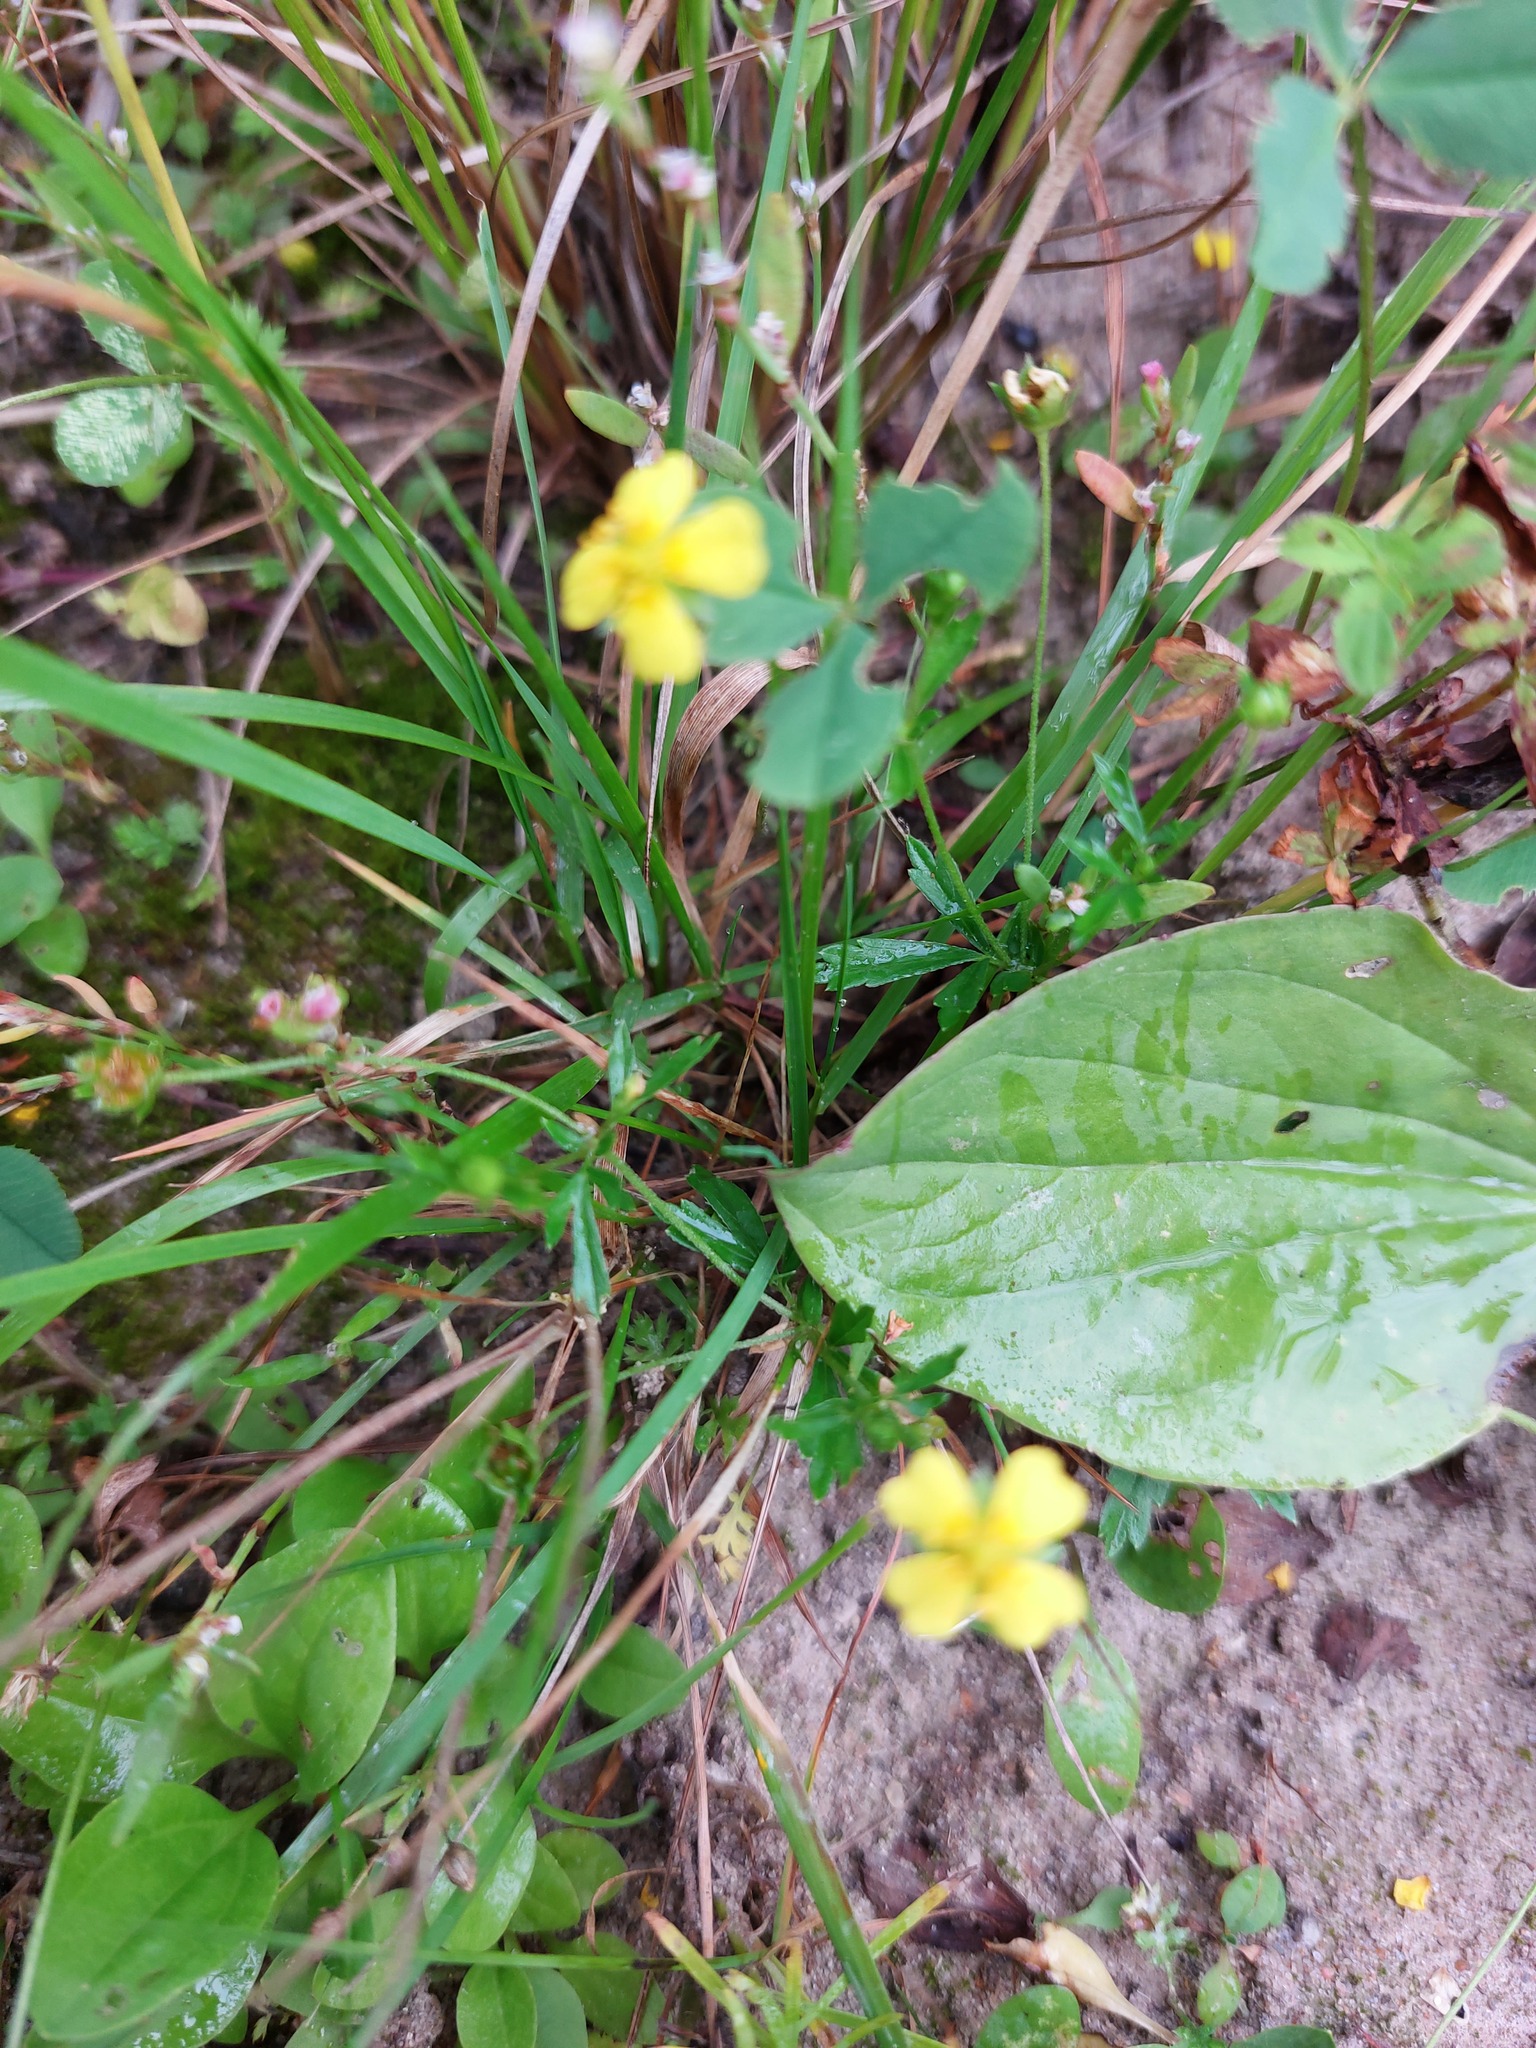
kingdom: Plantae
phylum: Tracheophyta
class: Magnoliopsida
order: Rosales
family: Rosaceae
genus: Potentilla
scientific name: Potentilla erecta
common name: Tormentil
